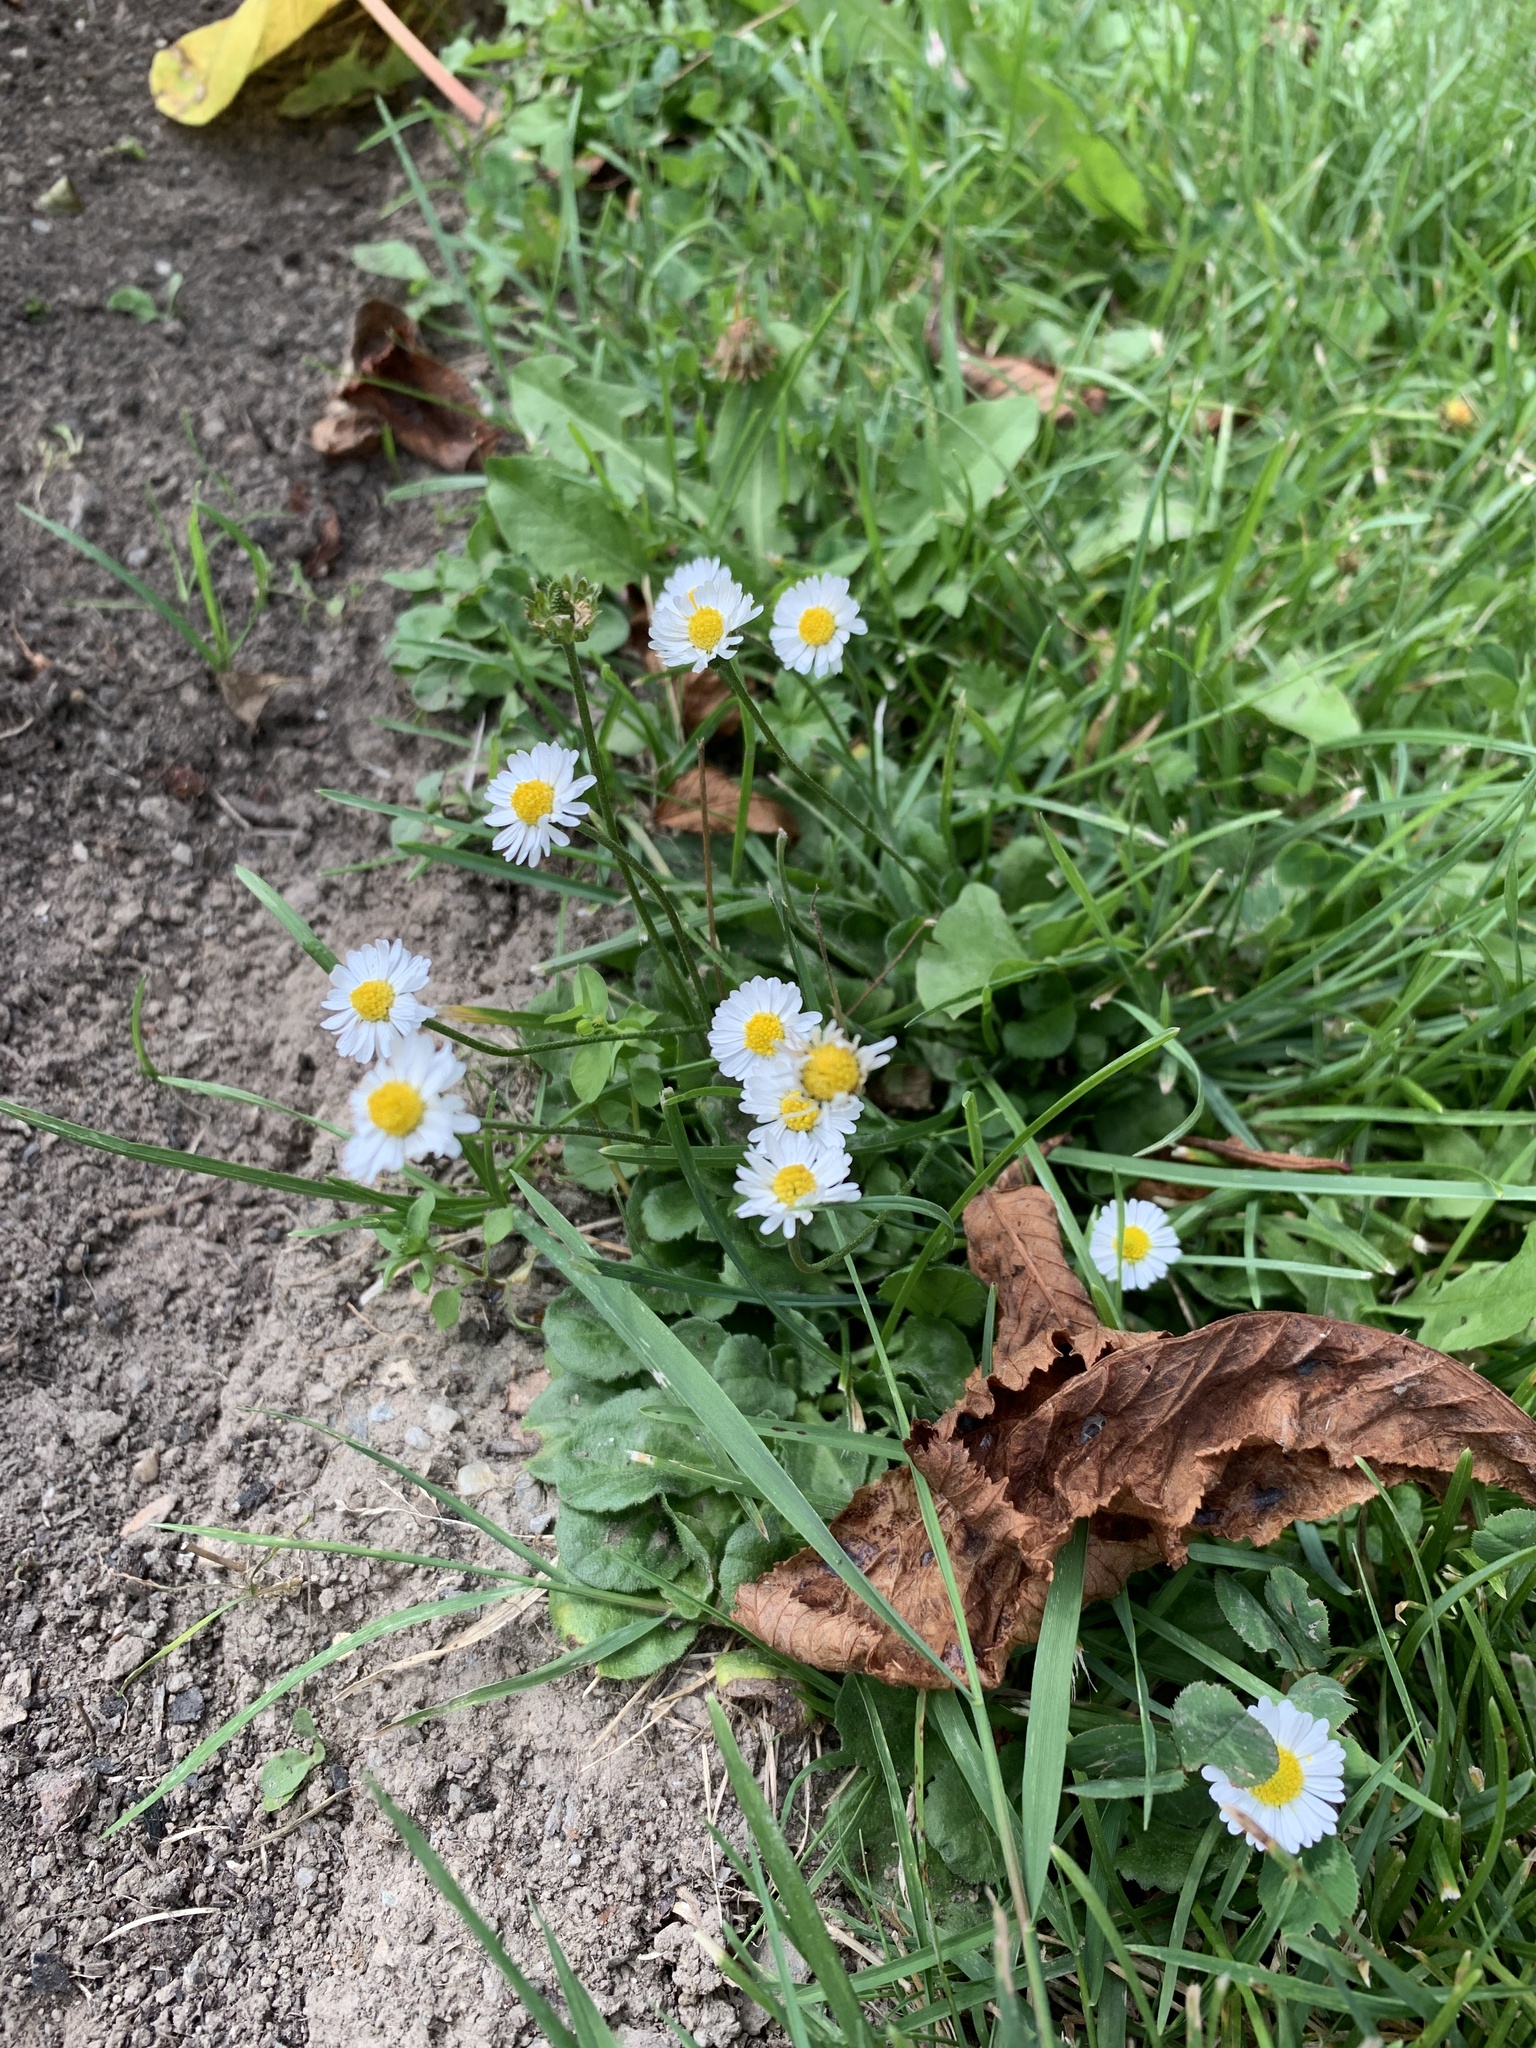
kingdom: Plantae
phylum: Tracheophyta
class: Magnoliopsida
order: Asterales
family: Asteraceae
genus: Bellis
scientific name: Bellis perennis
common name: Lawndaisy
